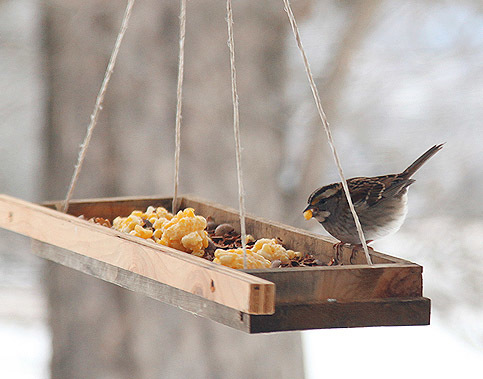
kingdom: Animalia
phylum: Chordata
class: Aves
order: Passeriformes
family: Passerellidae
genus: Zonotrichia
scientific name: Zonotrichia albicollis
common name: White-throated sparrow
